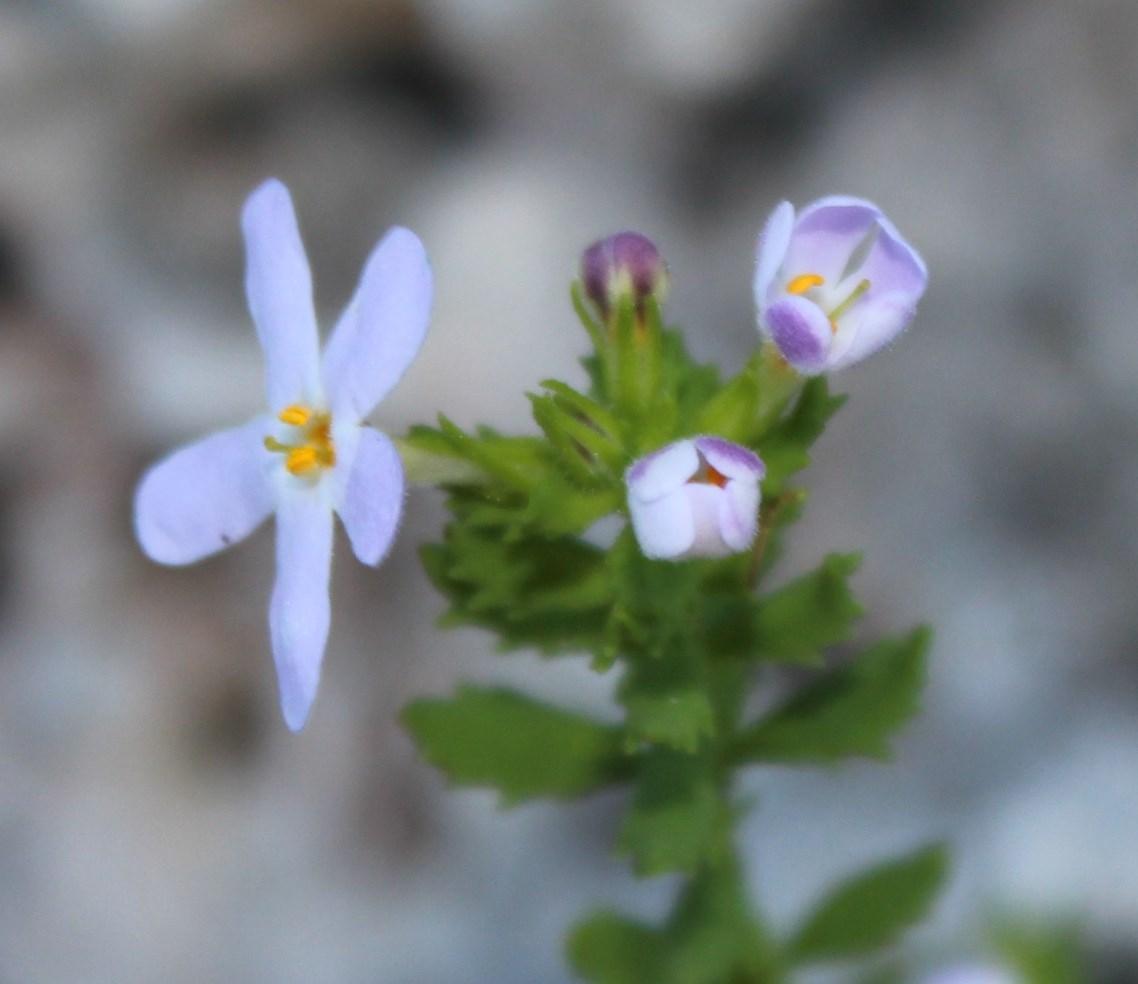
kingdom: Plantae
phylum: Tracheophyta
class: Magnoliopsida
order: Lamiales
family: Scrophulariaceae
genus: Chaenostoma
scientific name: Chaenostoma hispidum
